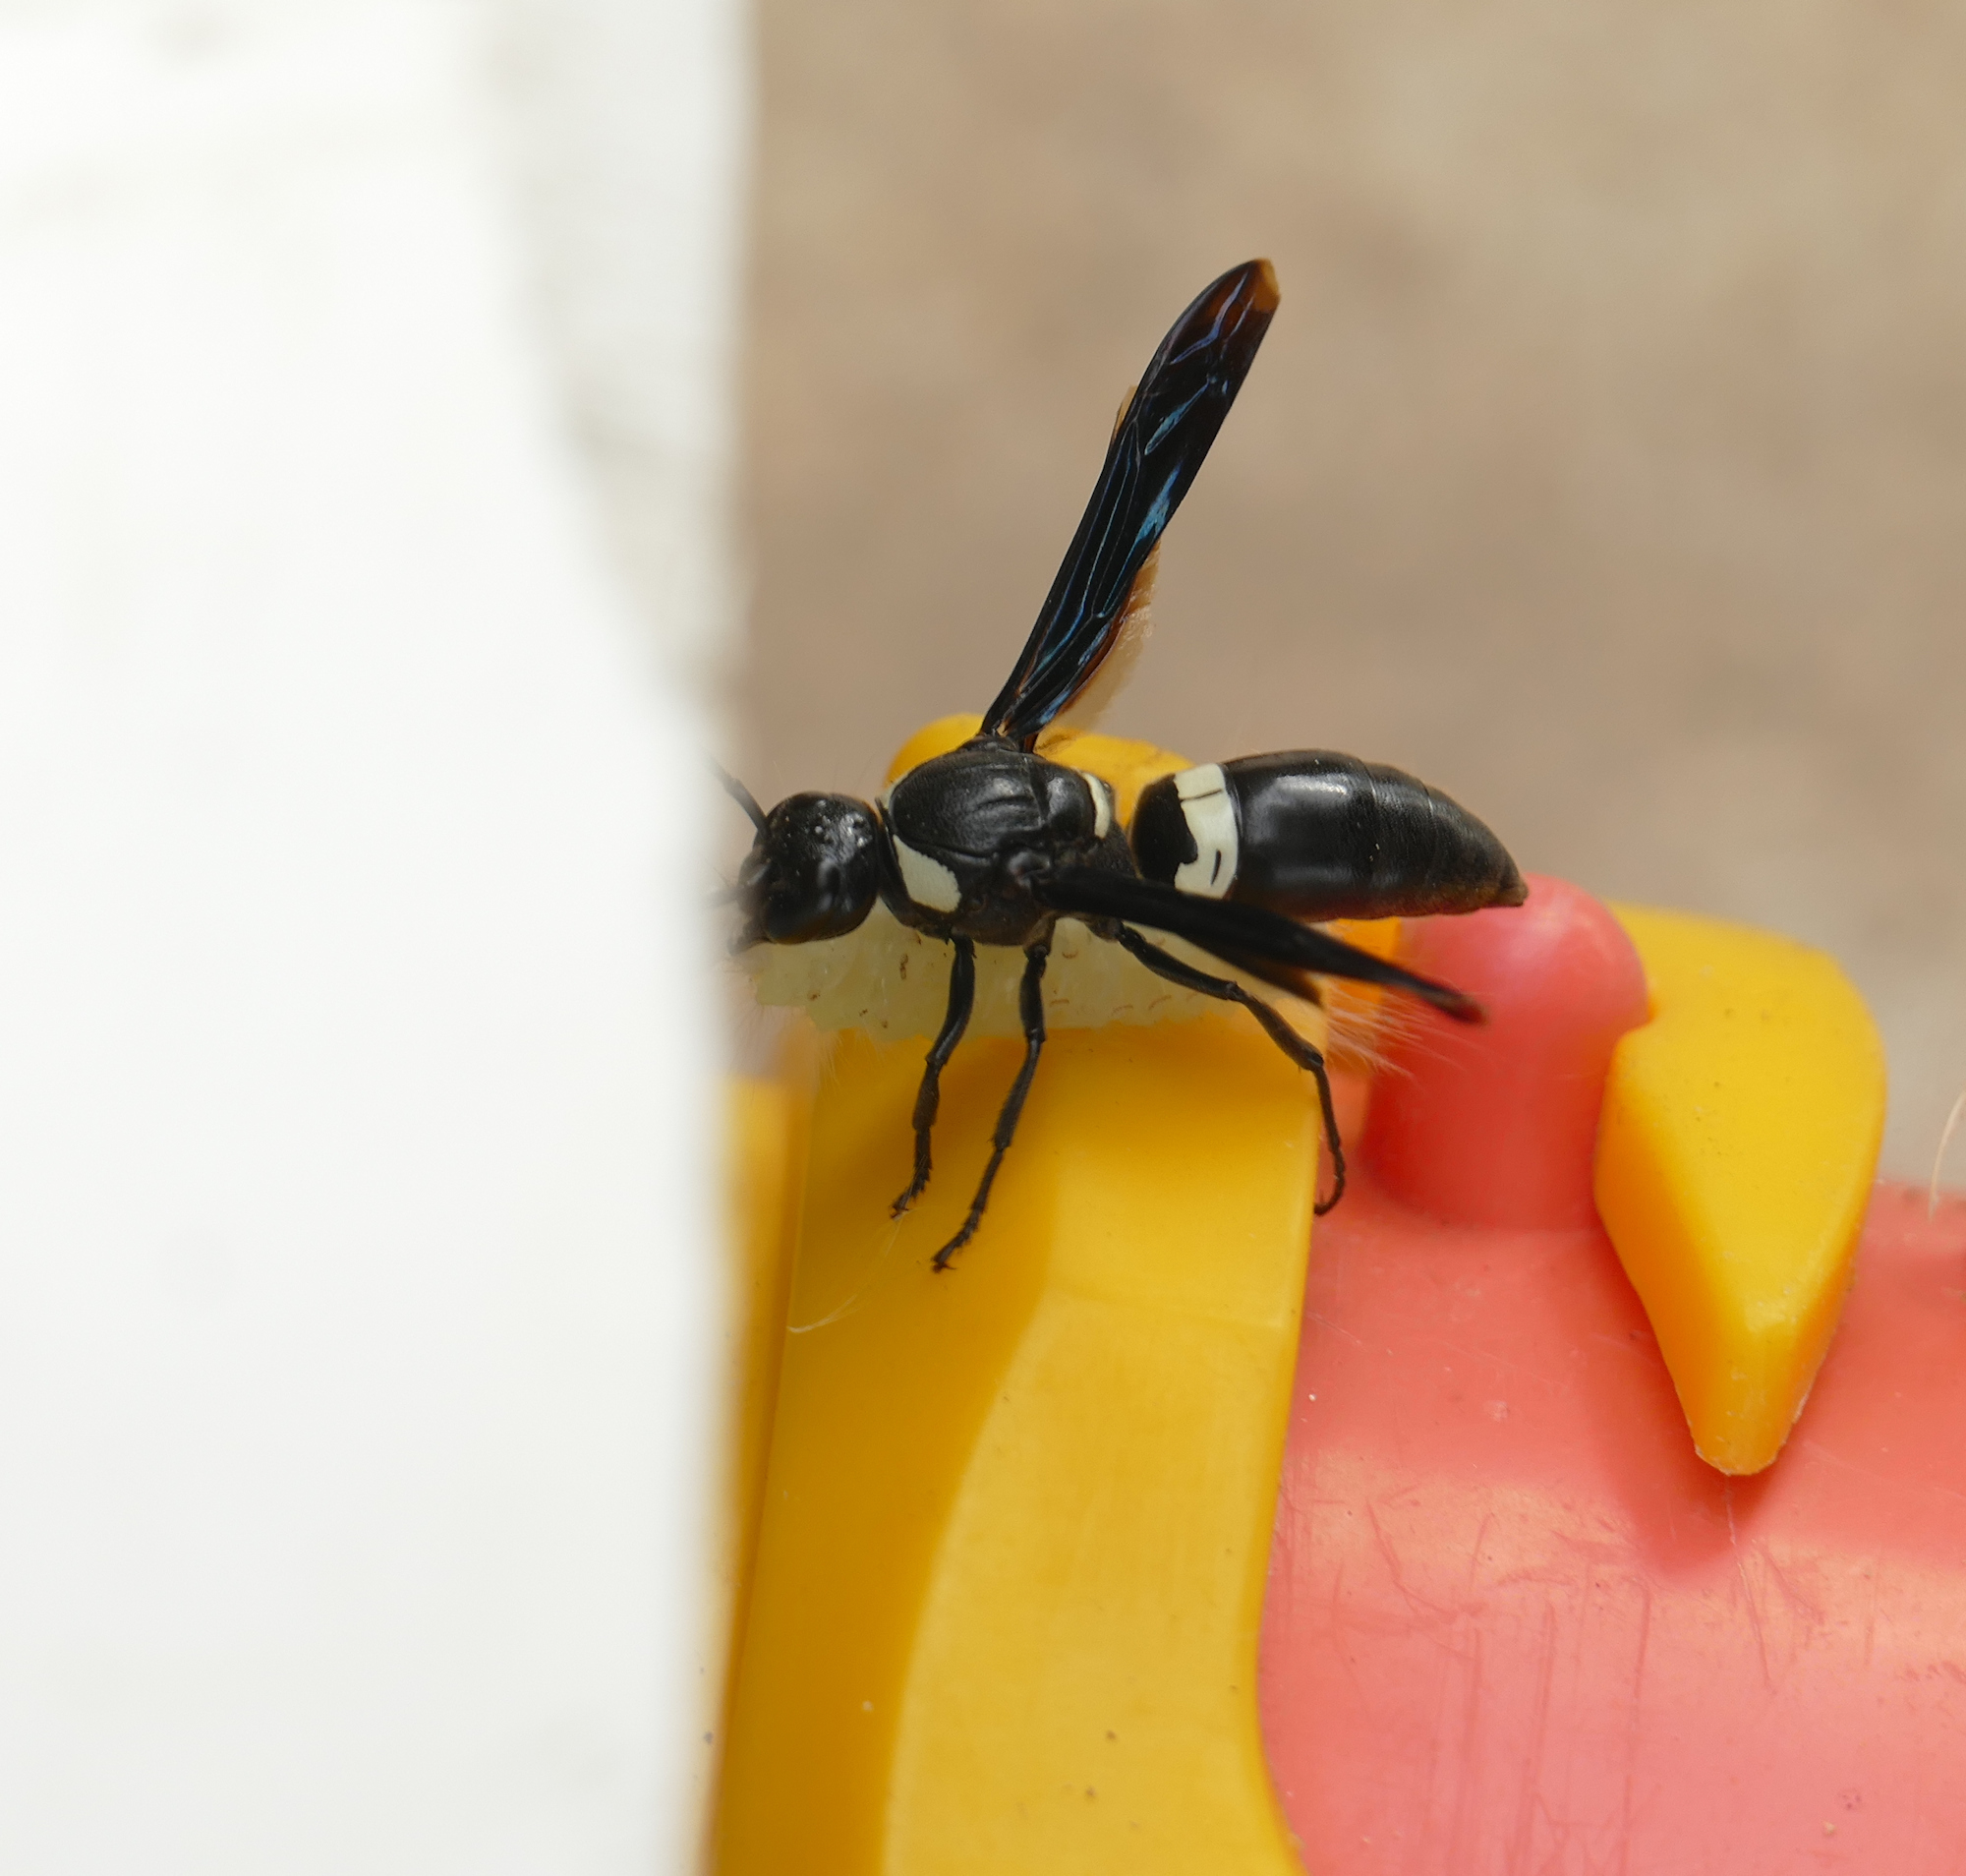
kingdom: Animalia
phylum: Arthropoda
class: Insecta
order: Hymenoptera
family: Eumenidae
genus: Monobia
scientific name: Monobia quadridens
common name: Four-toothed mason wasp
